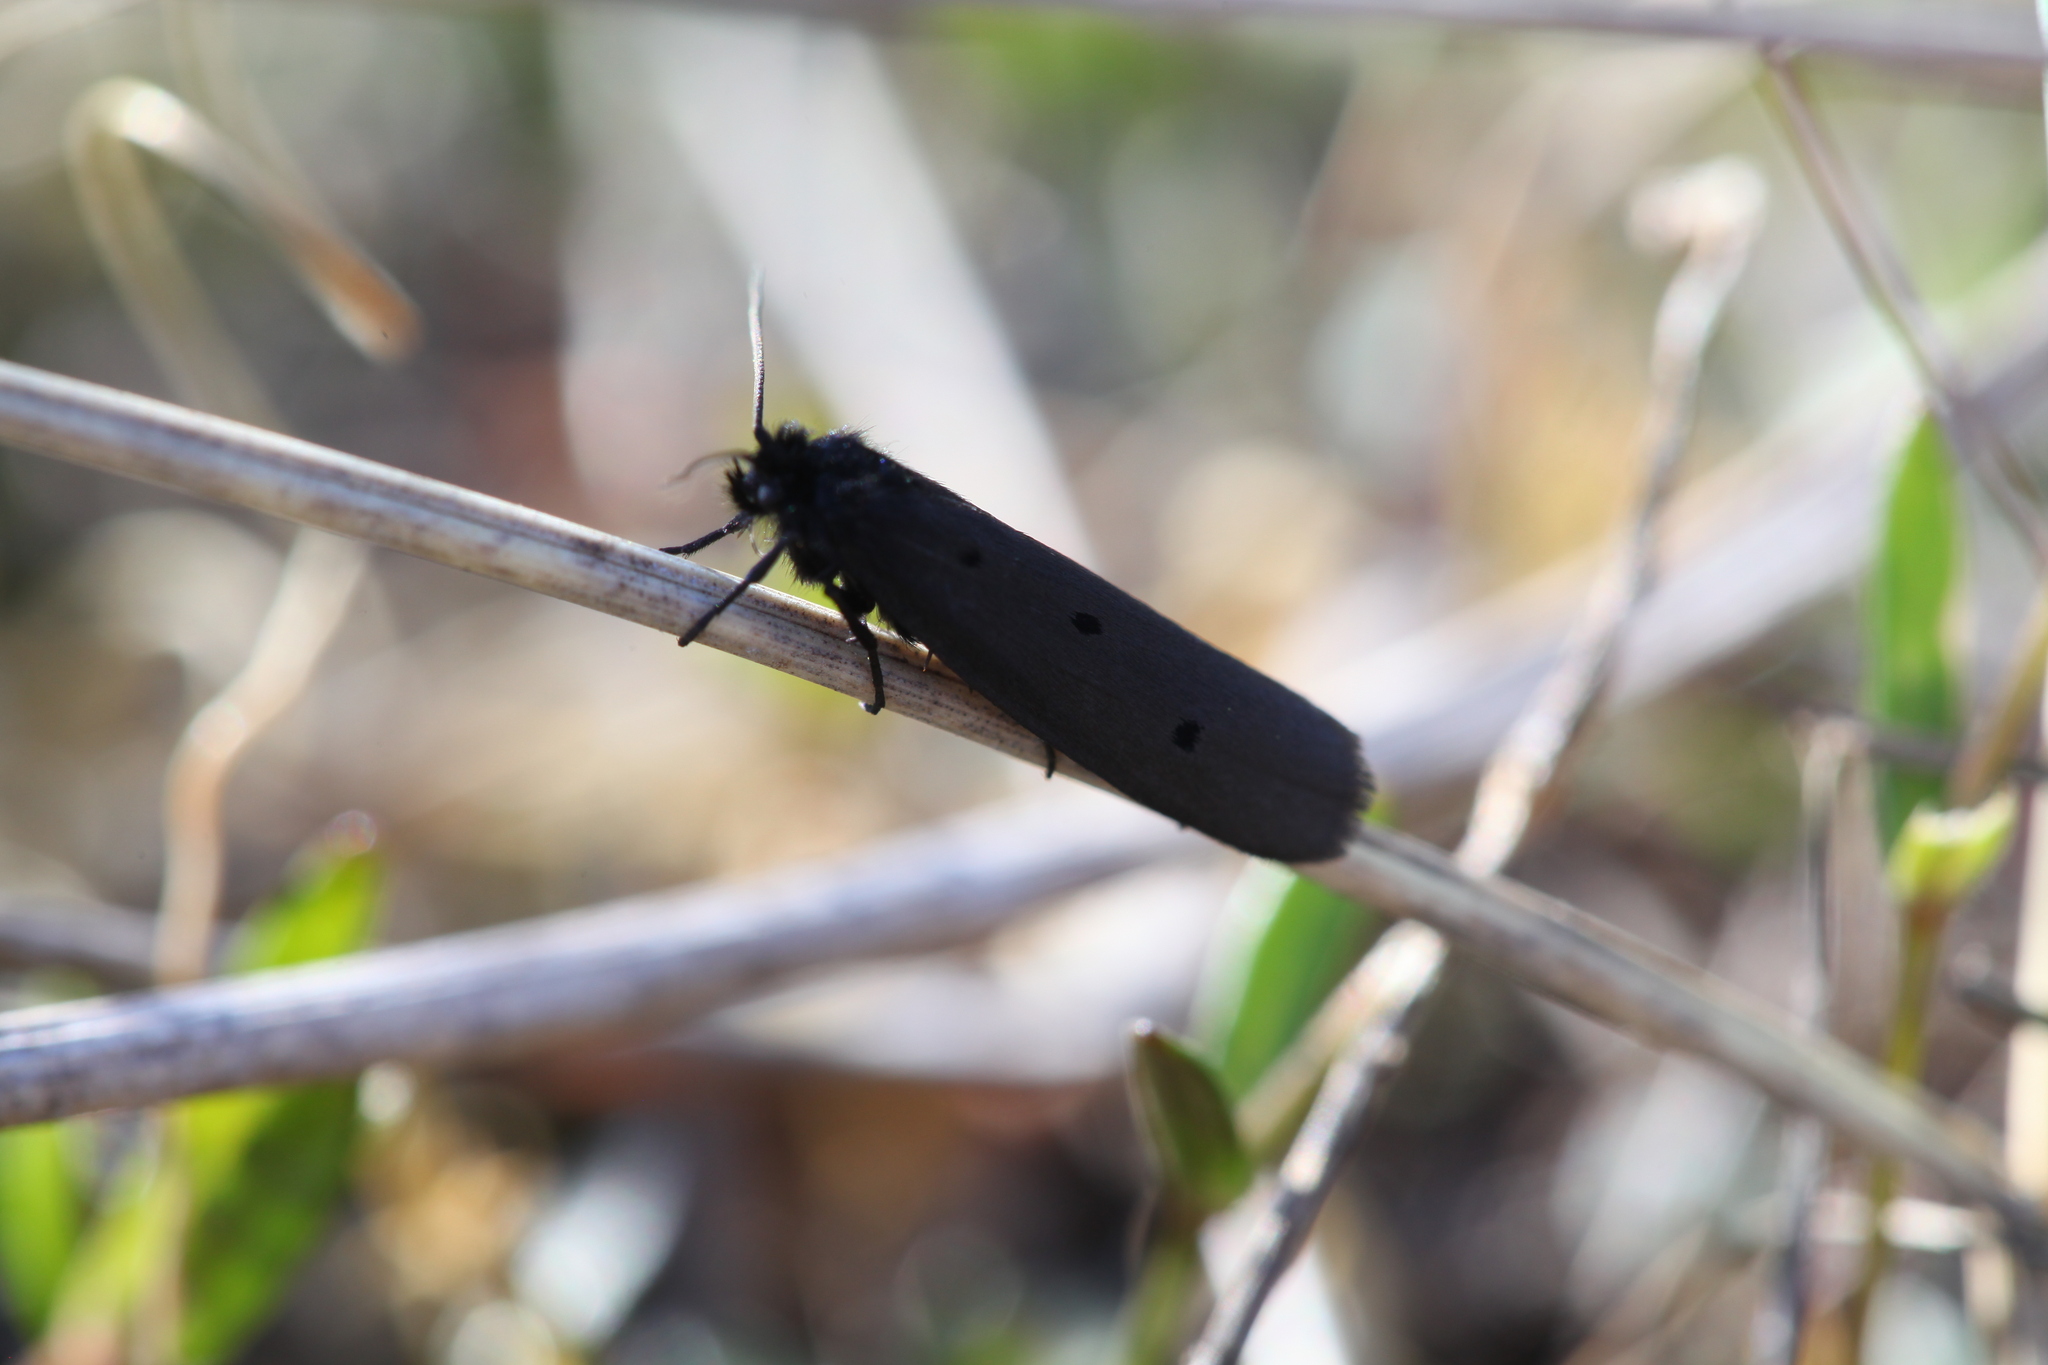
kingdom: Animalia
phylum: Arthropoda
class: Insecta
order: Lepidoptera
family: Ethmiidae
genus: Ethmia
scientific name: Ethmia pyrausta
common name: Mountain ermel
